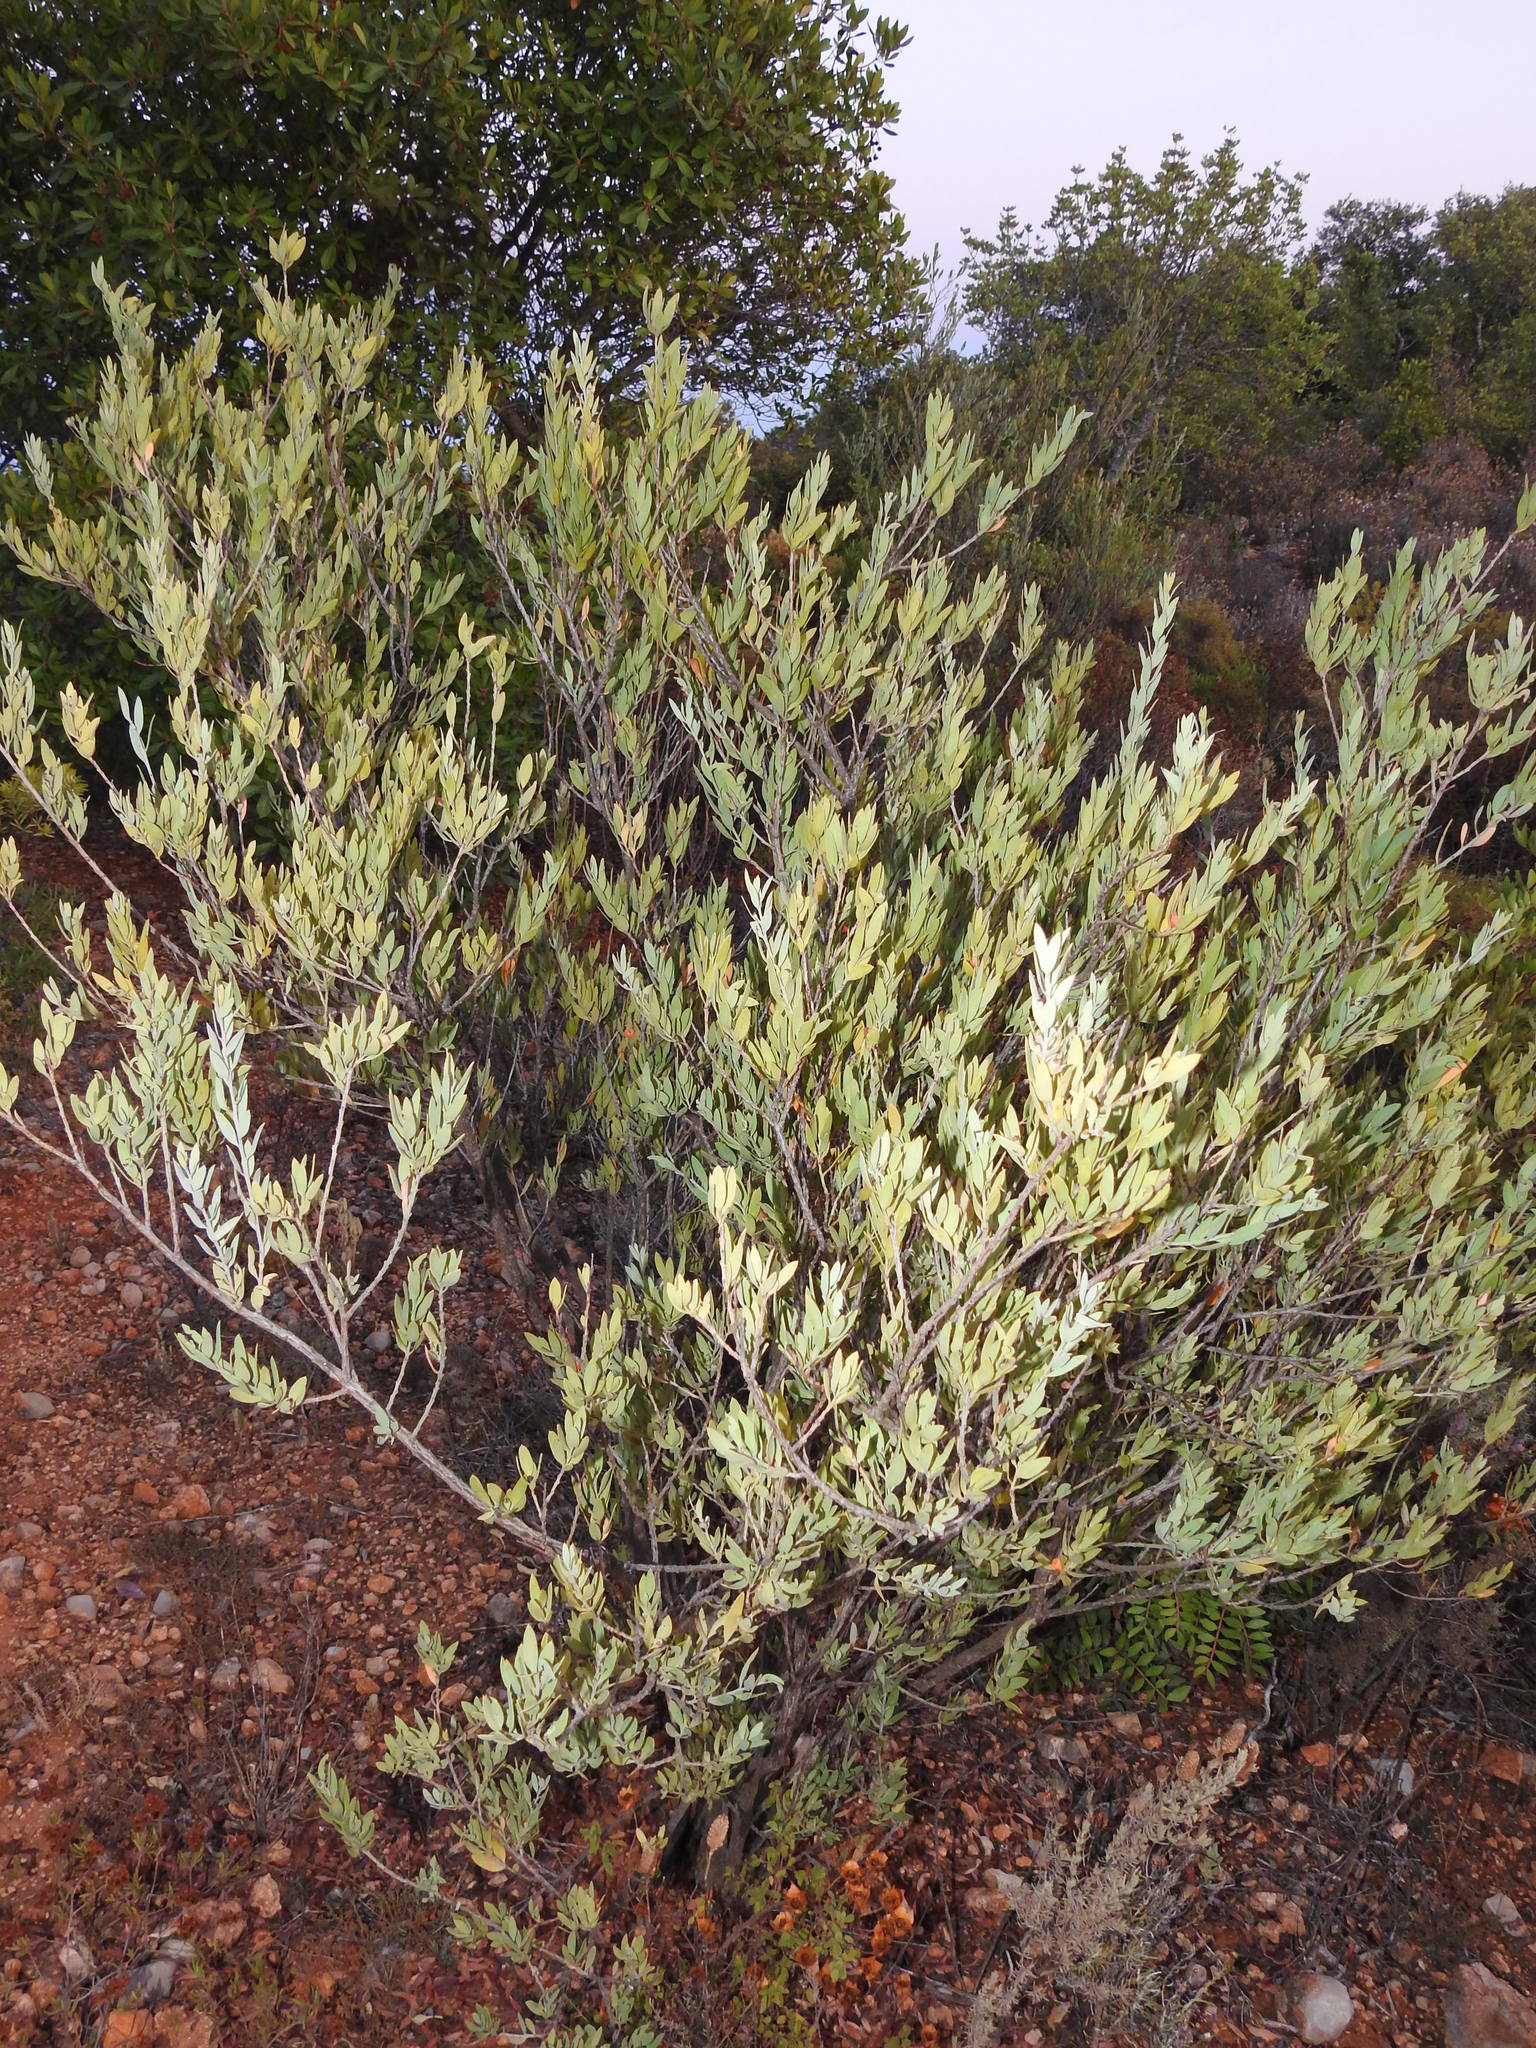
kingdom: Plantae
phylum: Tracheophyta
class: Magnoliopsida
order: Santalales
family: Santalaceae
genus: Osyris
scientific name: Osyris lanceolata
